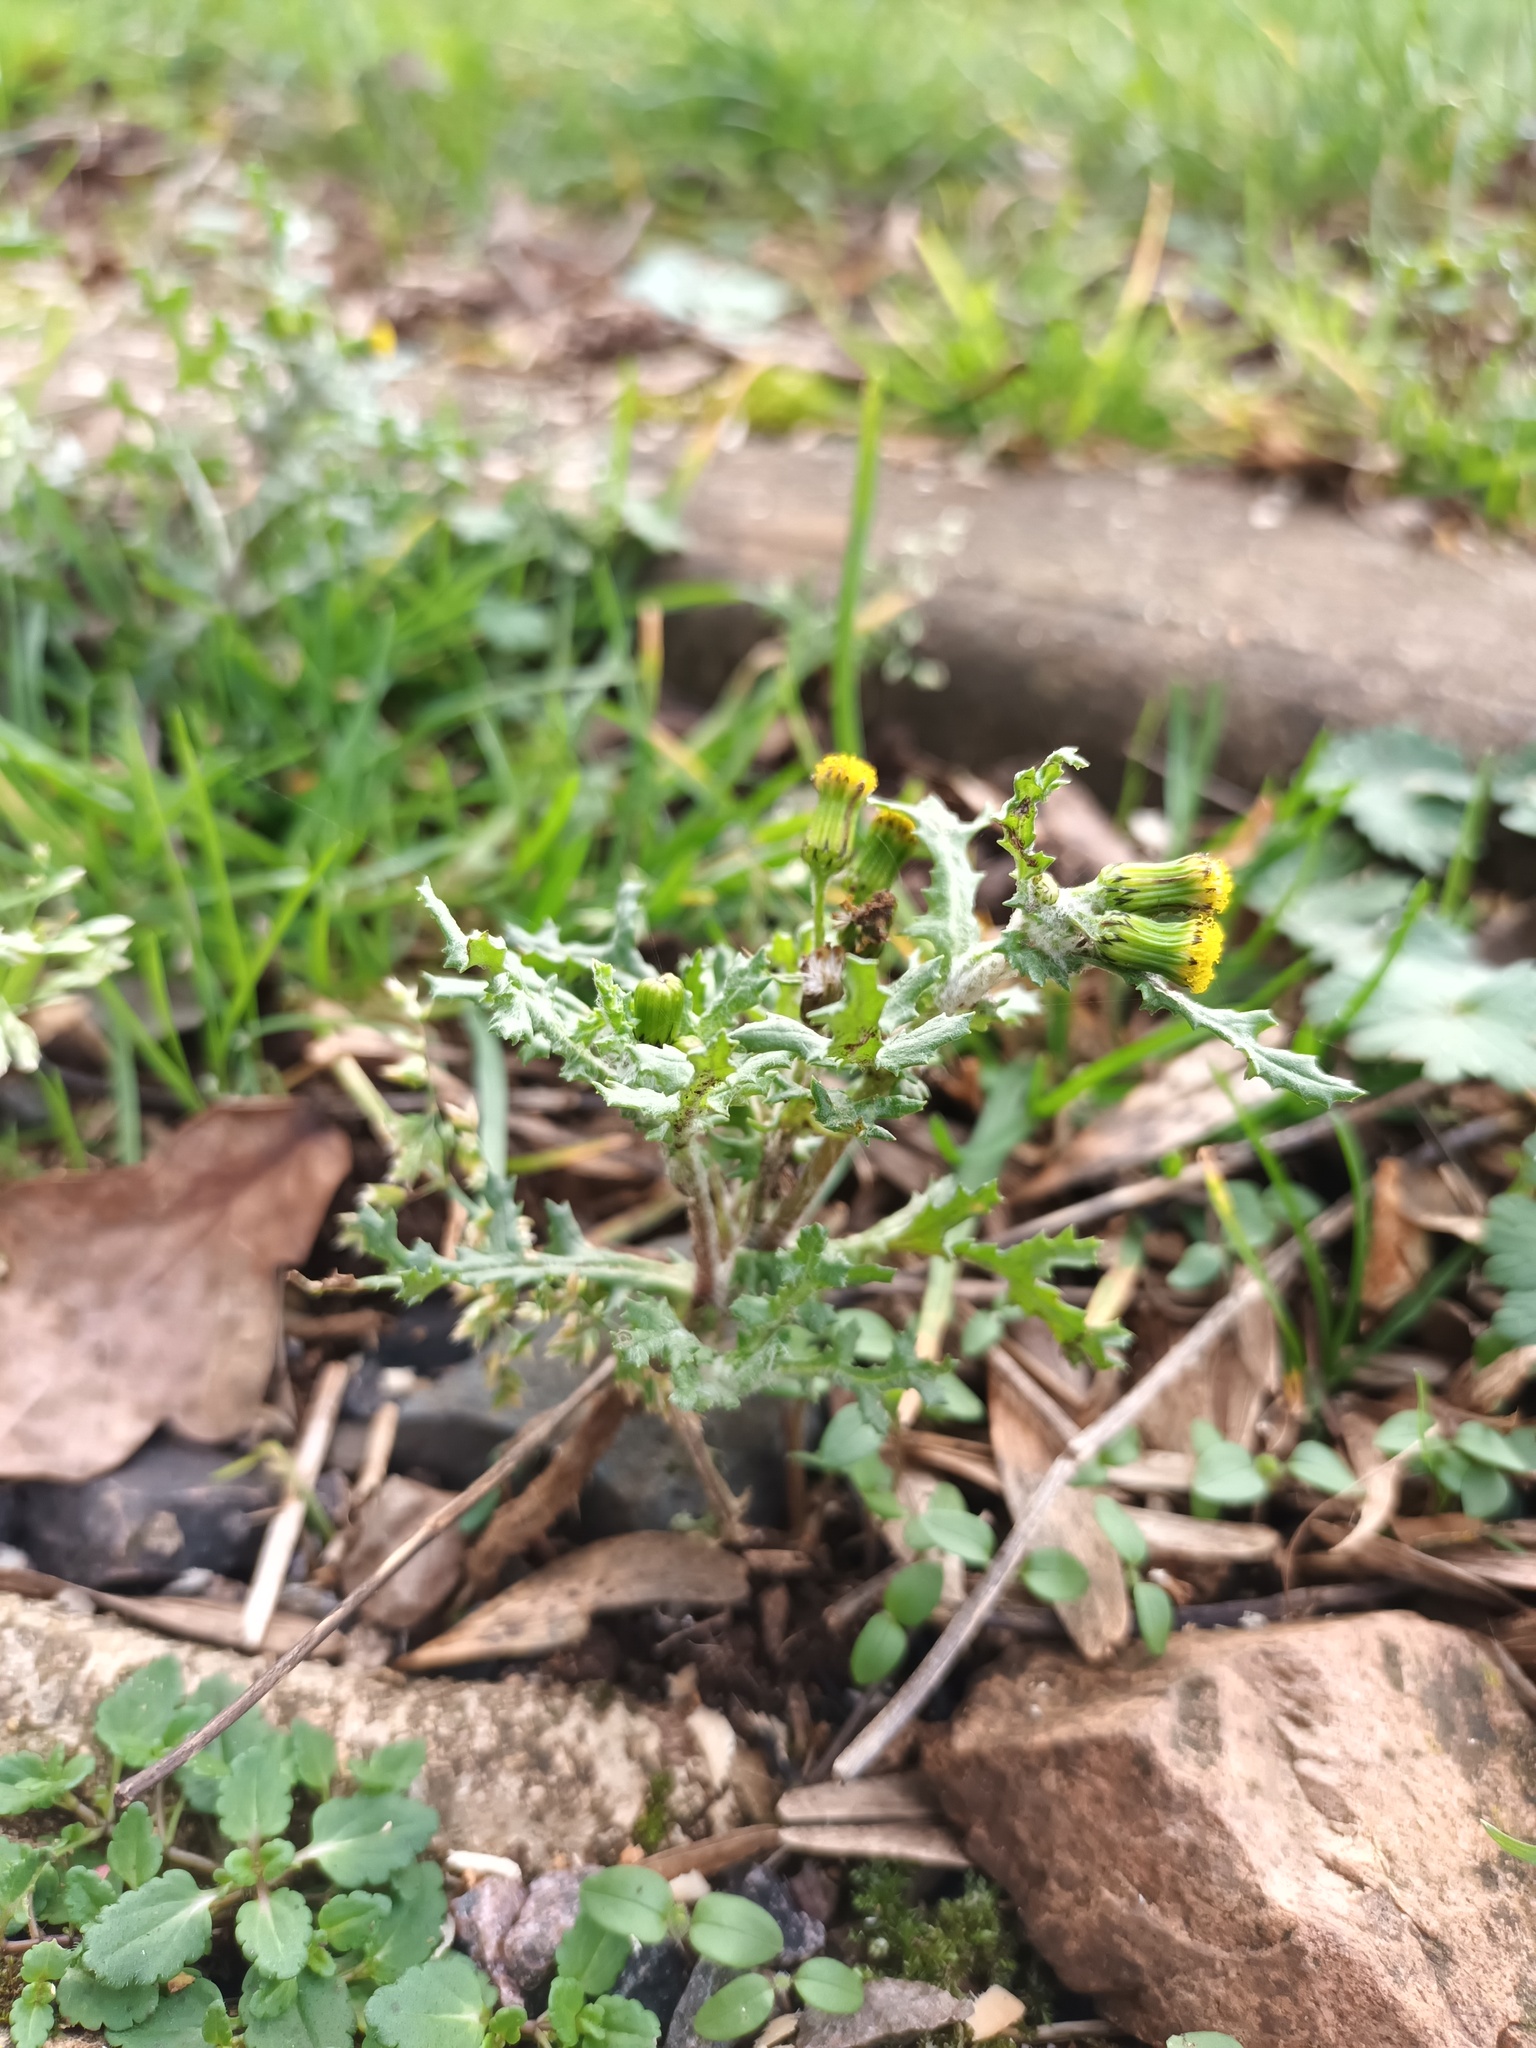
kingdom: Plantae
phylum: Tracheophyta
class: Magnoliopsida
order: Asterales
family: Asteraceae
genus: Senecio
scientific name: Senecio vulgaris
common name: Old-man-in-the-spring
